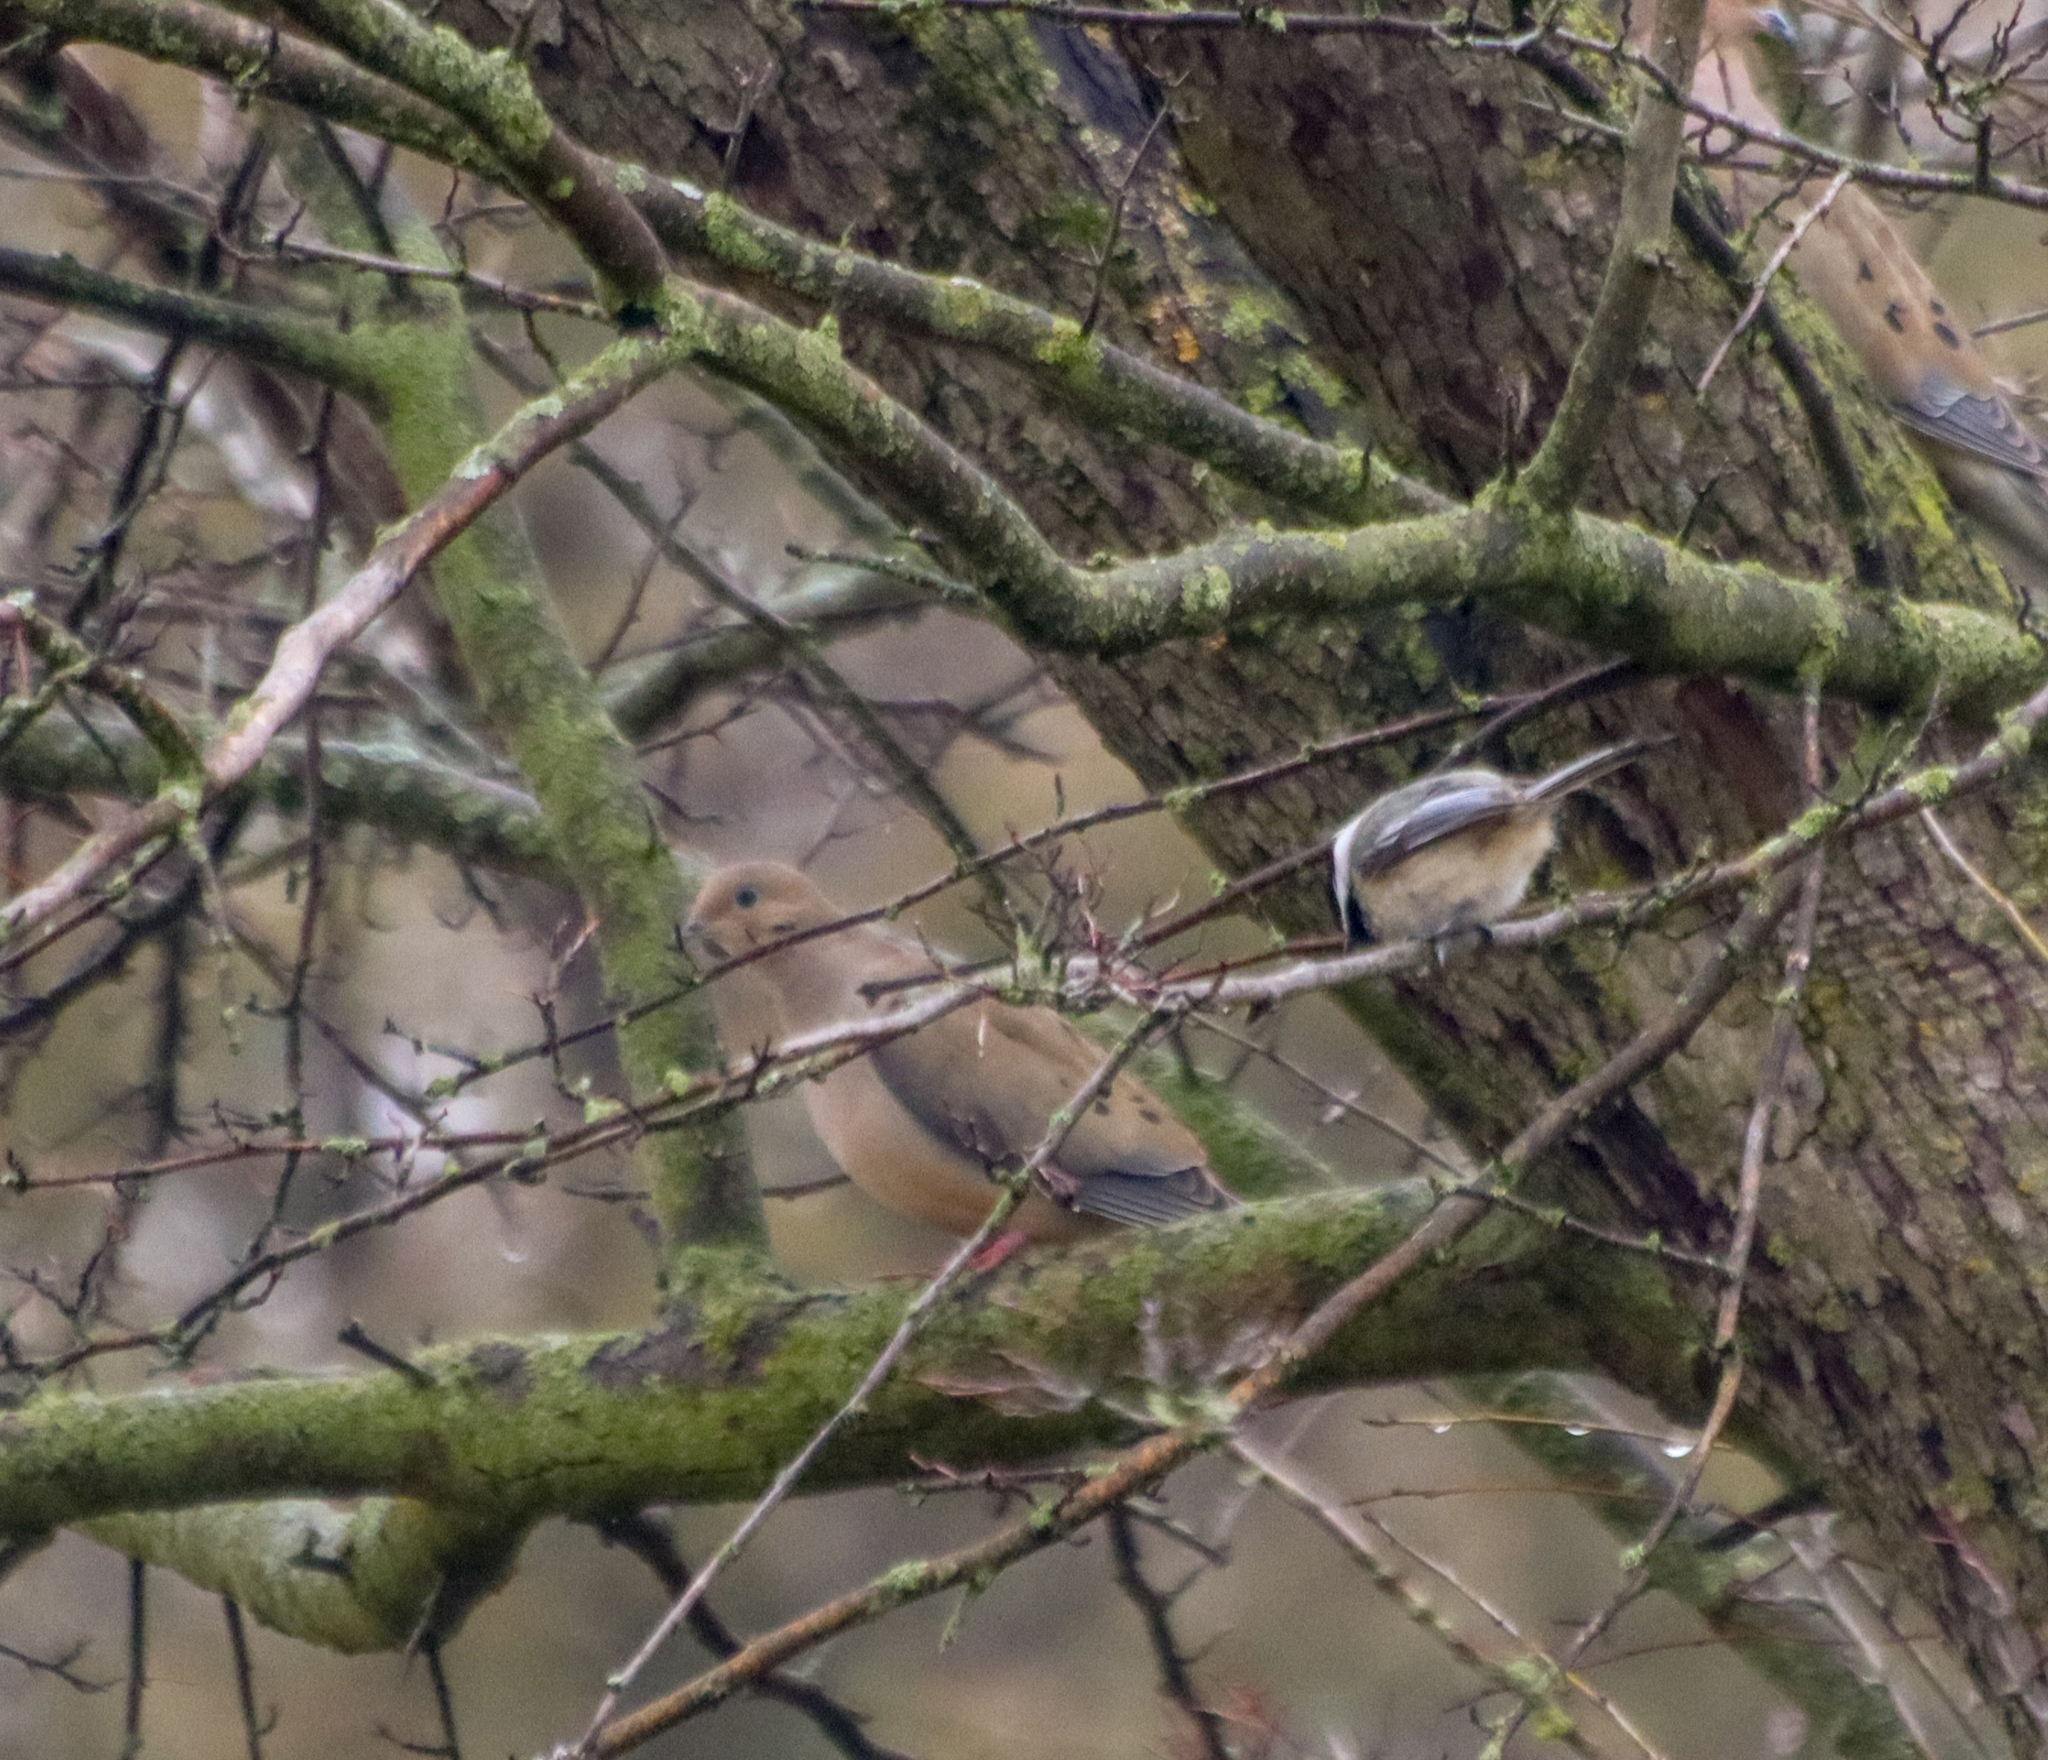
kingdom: Animalia
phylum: Chordata
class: Aves
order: Passeriformes
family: Paridae
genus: Poecile
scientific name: Poecile atricapillus
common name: Black-capped chickadee
